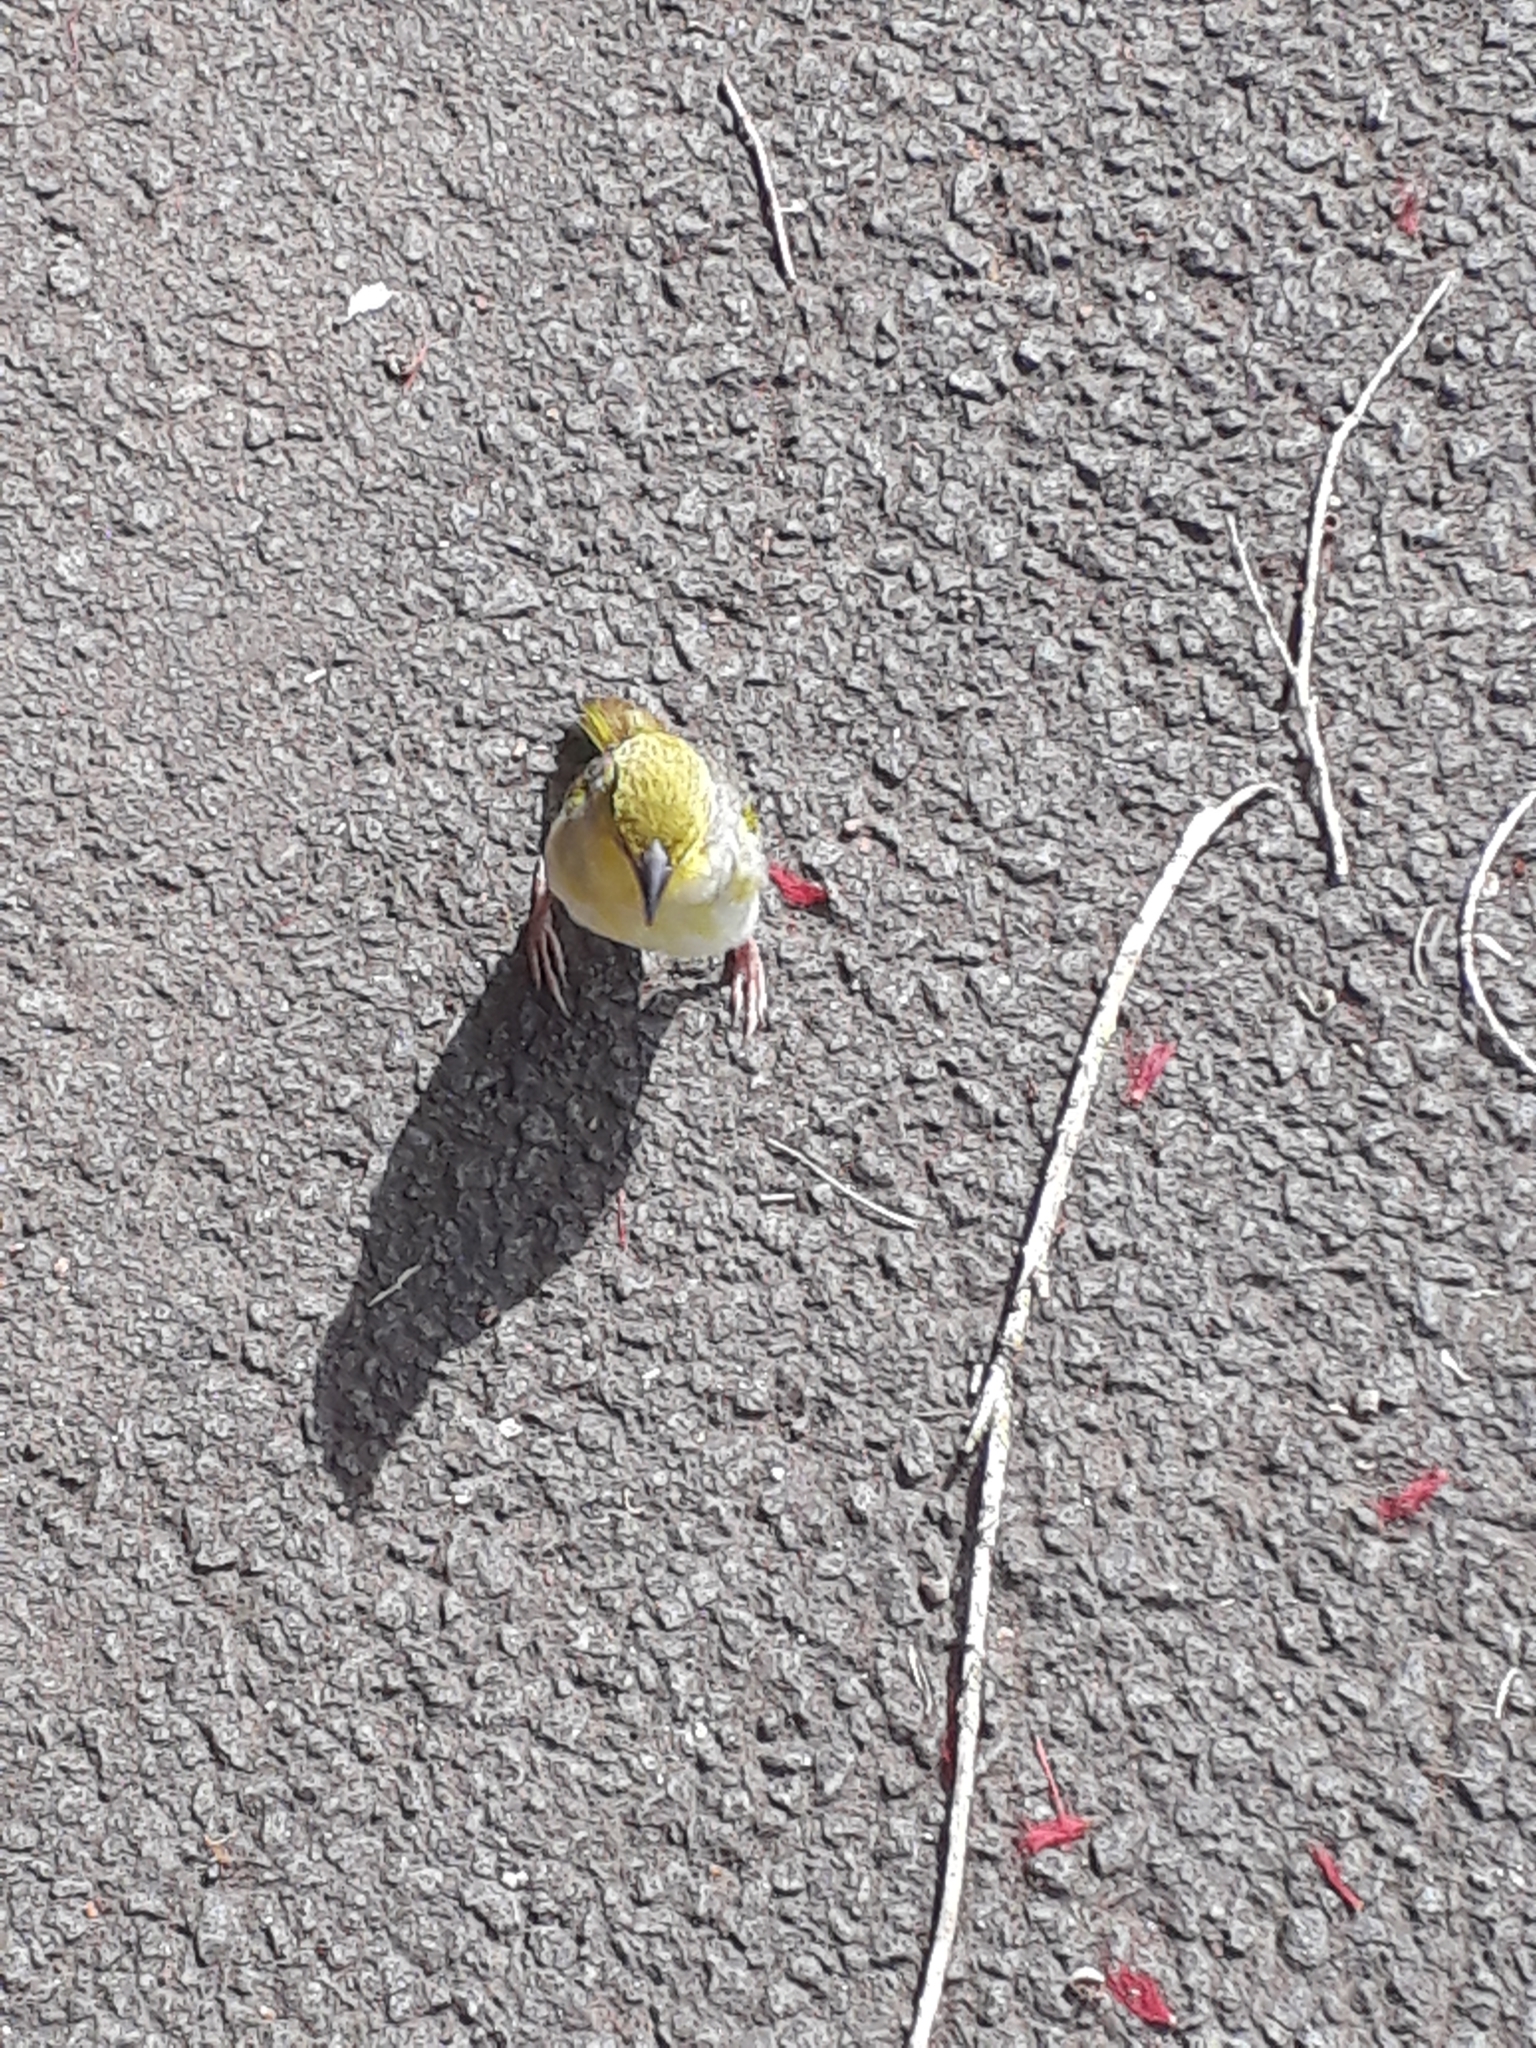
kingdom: Animalia
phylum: Chordata
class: Aves
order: Passeriformes
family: Ploceidae
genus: Ploceus
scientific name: Ploceus cucullatus
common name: Village weaver
